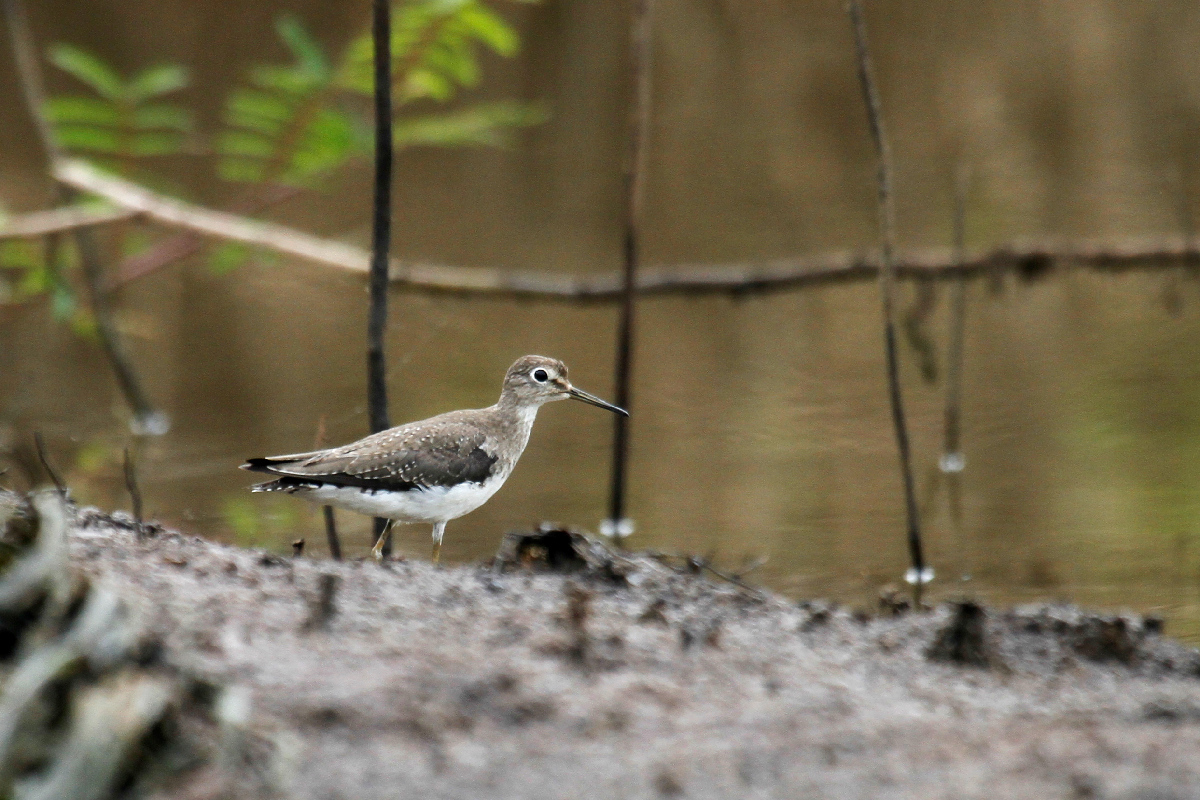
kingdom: Animalia
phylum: Chordata
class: Aves
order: Charadriiformes
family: Scolopacidae
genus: Tringa
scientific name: Tringa solitaria
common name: Solitary sandpiper
